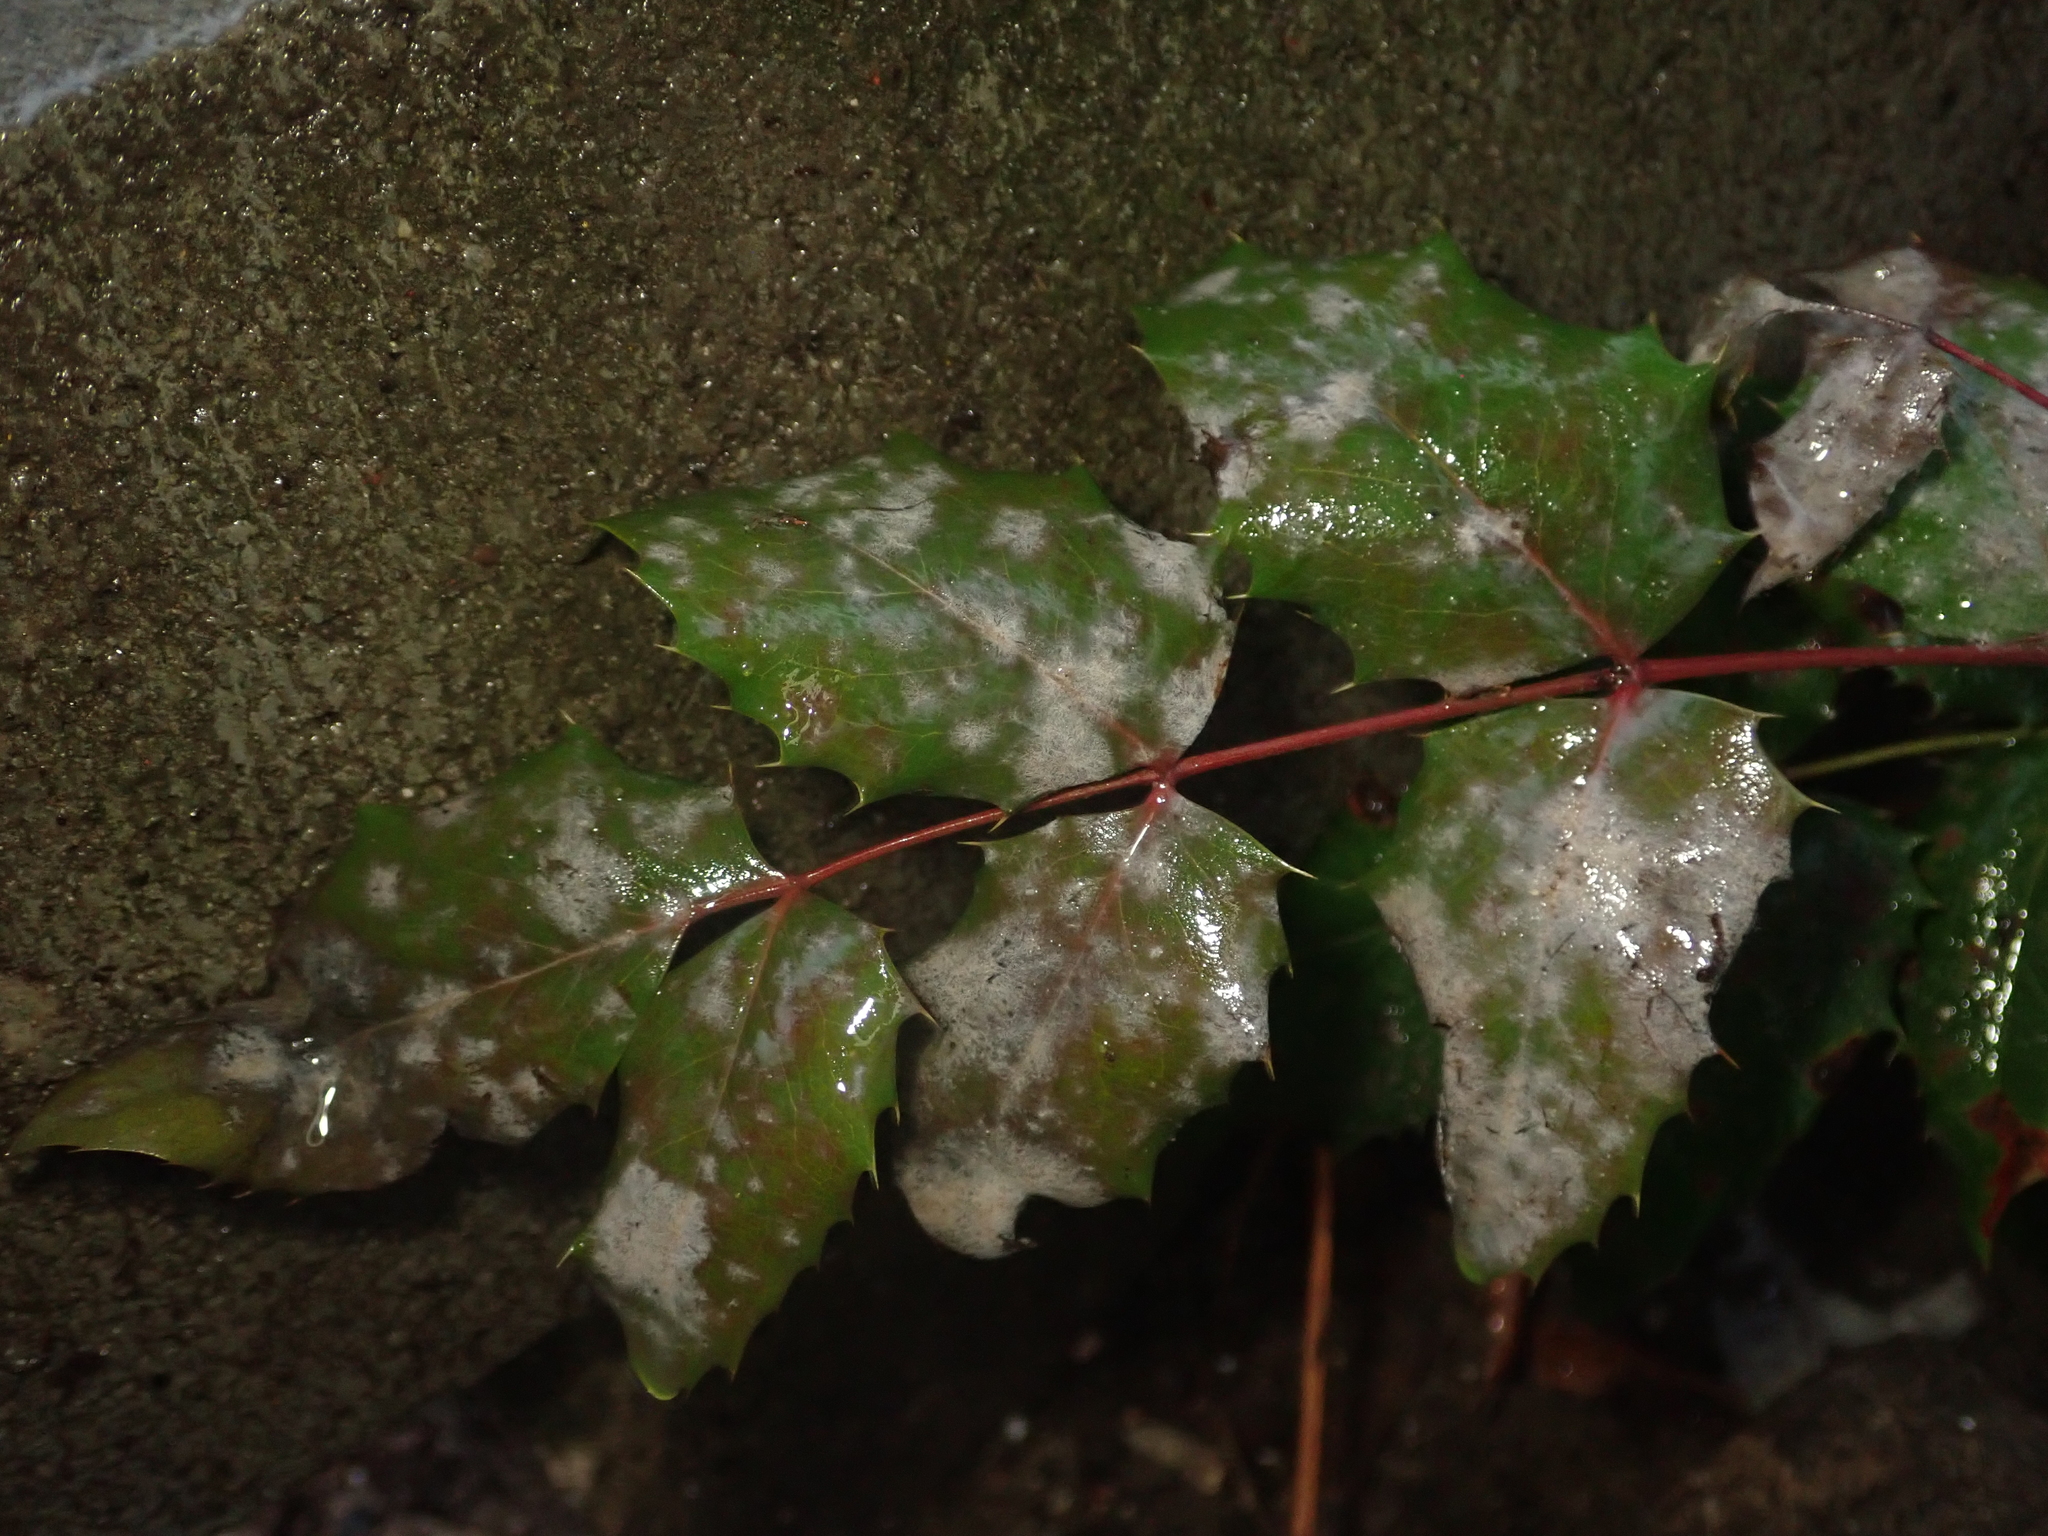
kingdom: Plantae
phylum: Tracheophyta
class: Magnoliopsida
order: Ranunculales
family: Berberidaceae
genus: Mahonia
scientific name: Mahonia aquifolium
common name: Oregon-grape
